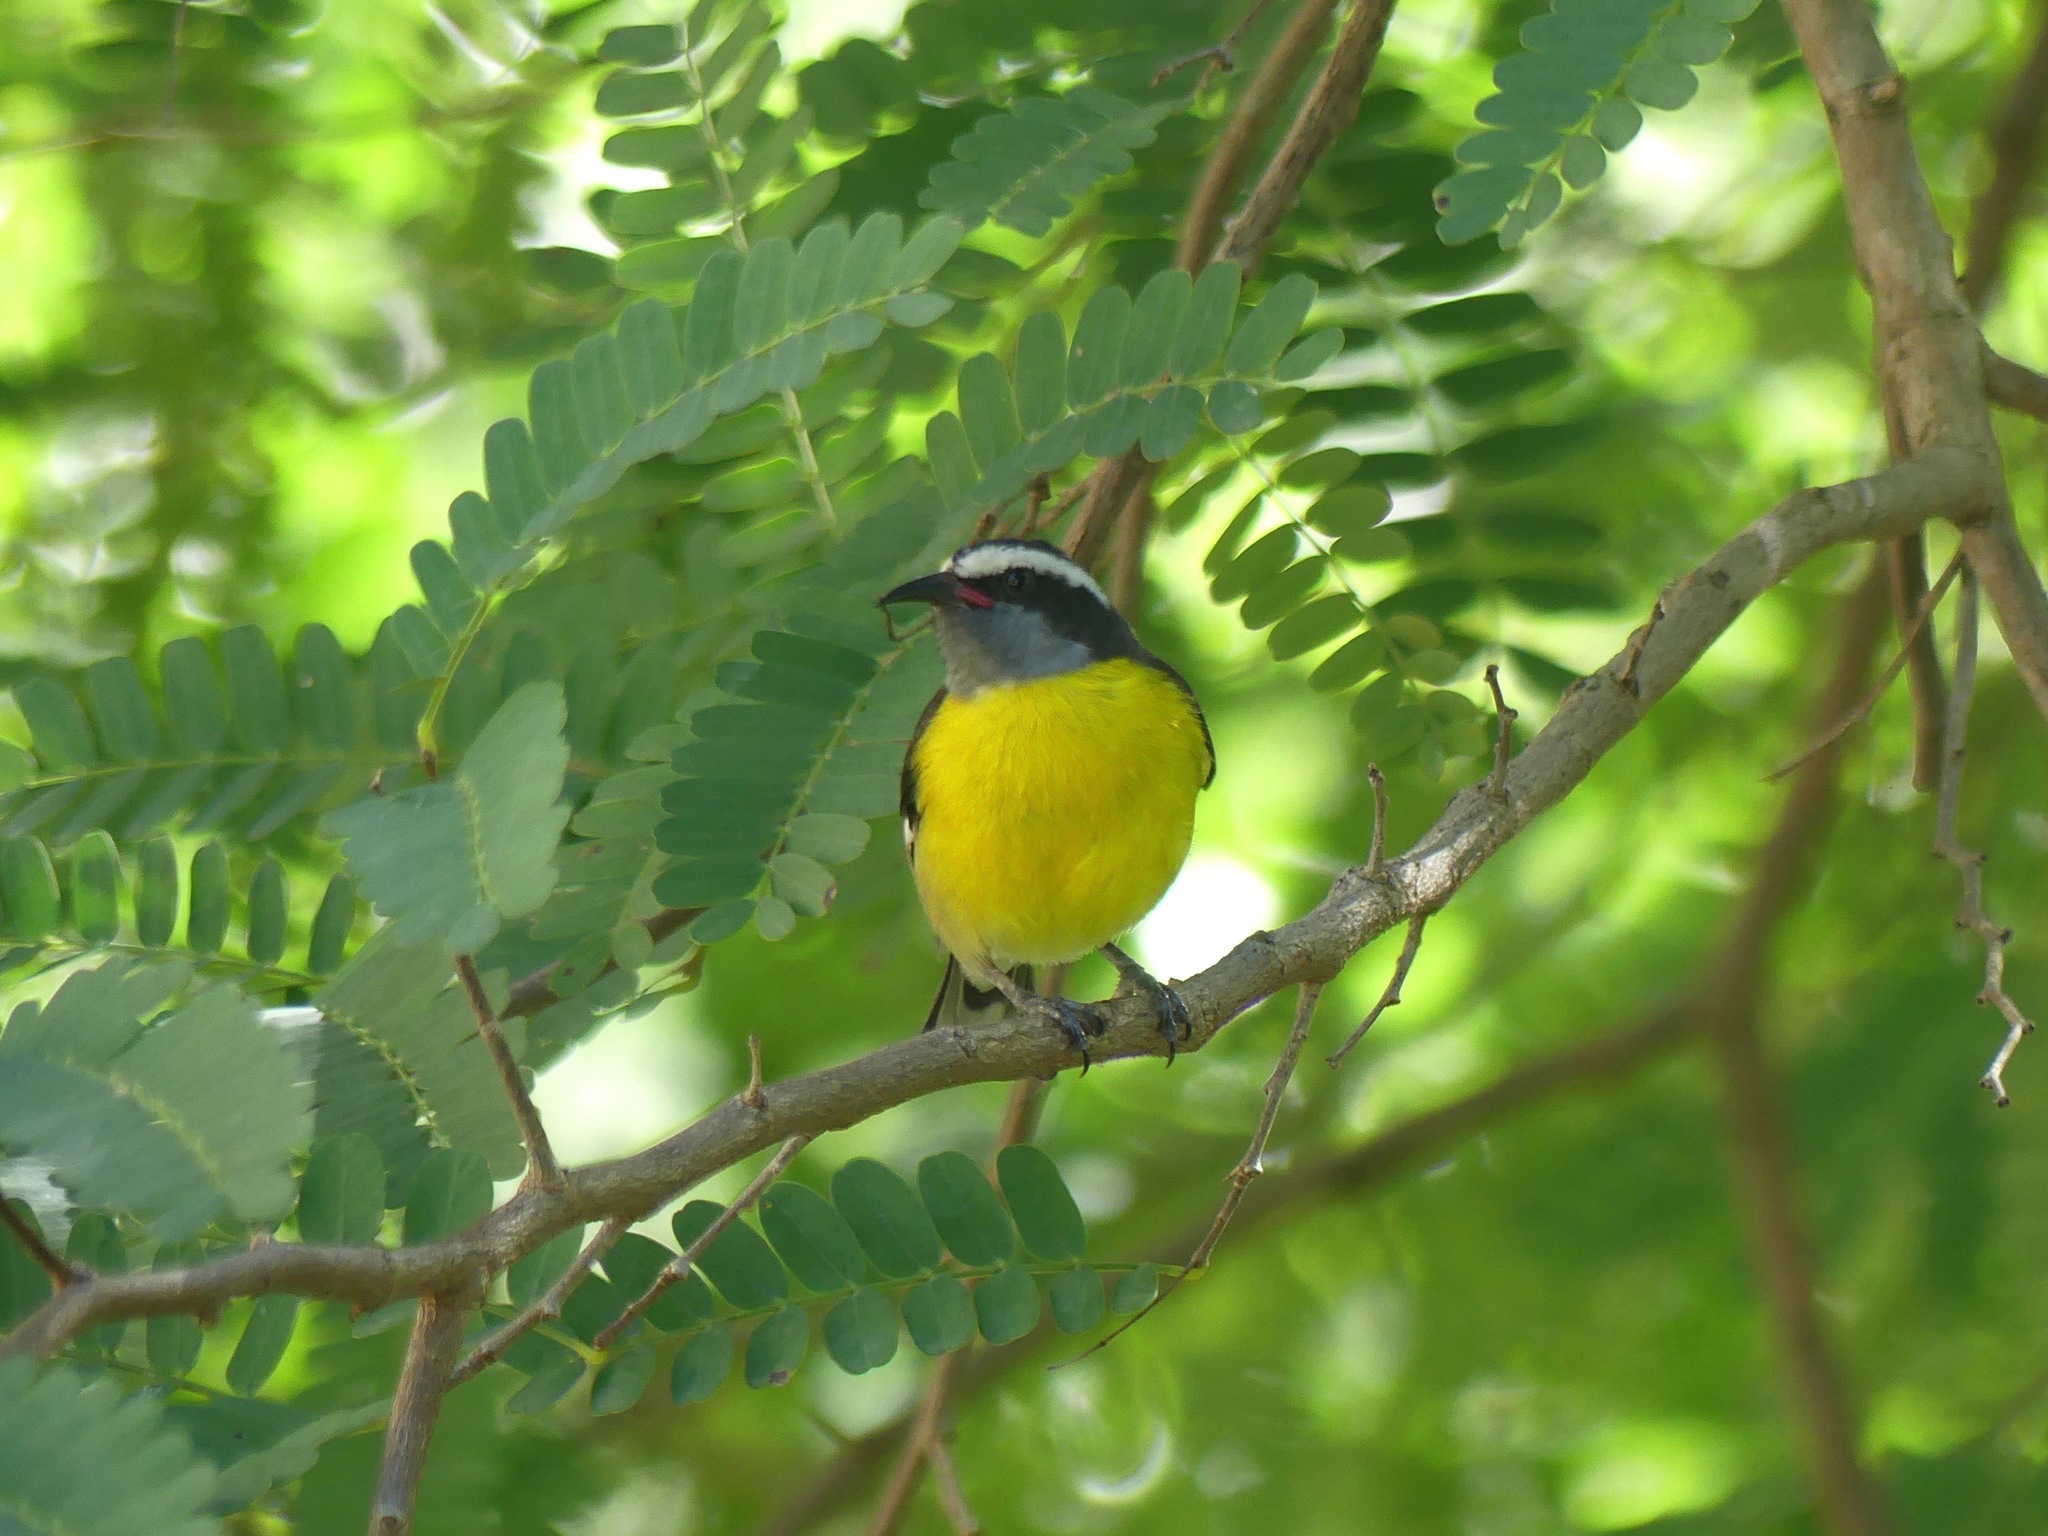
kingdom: Animalia
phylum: Chordata
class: Aves
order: Passeriformes
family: Thraupidae
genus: Coereba
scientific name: Coereba flaveola
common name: Bananaquit
